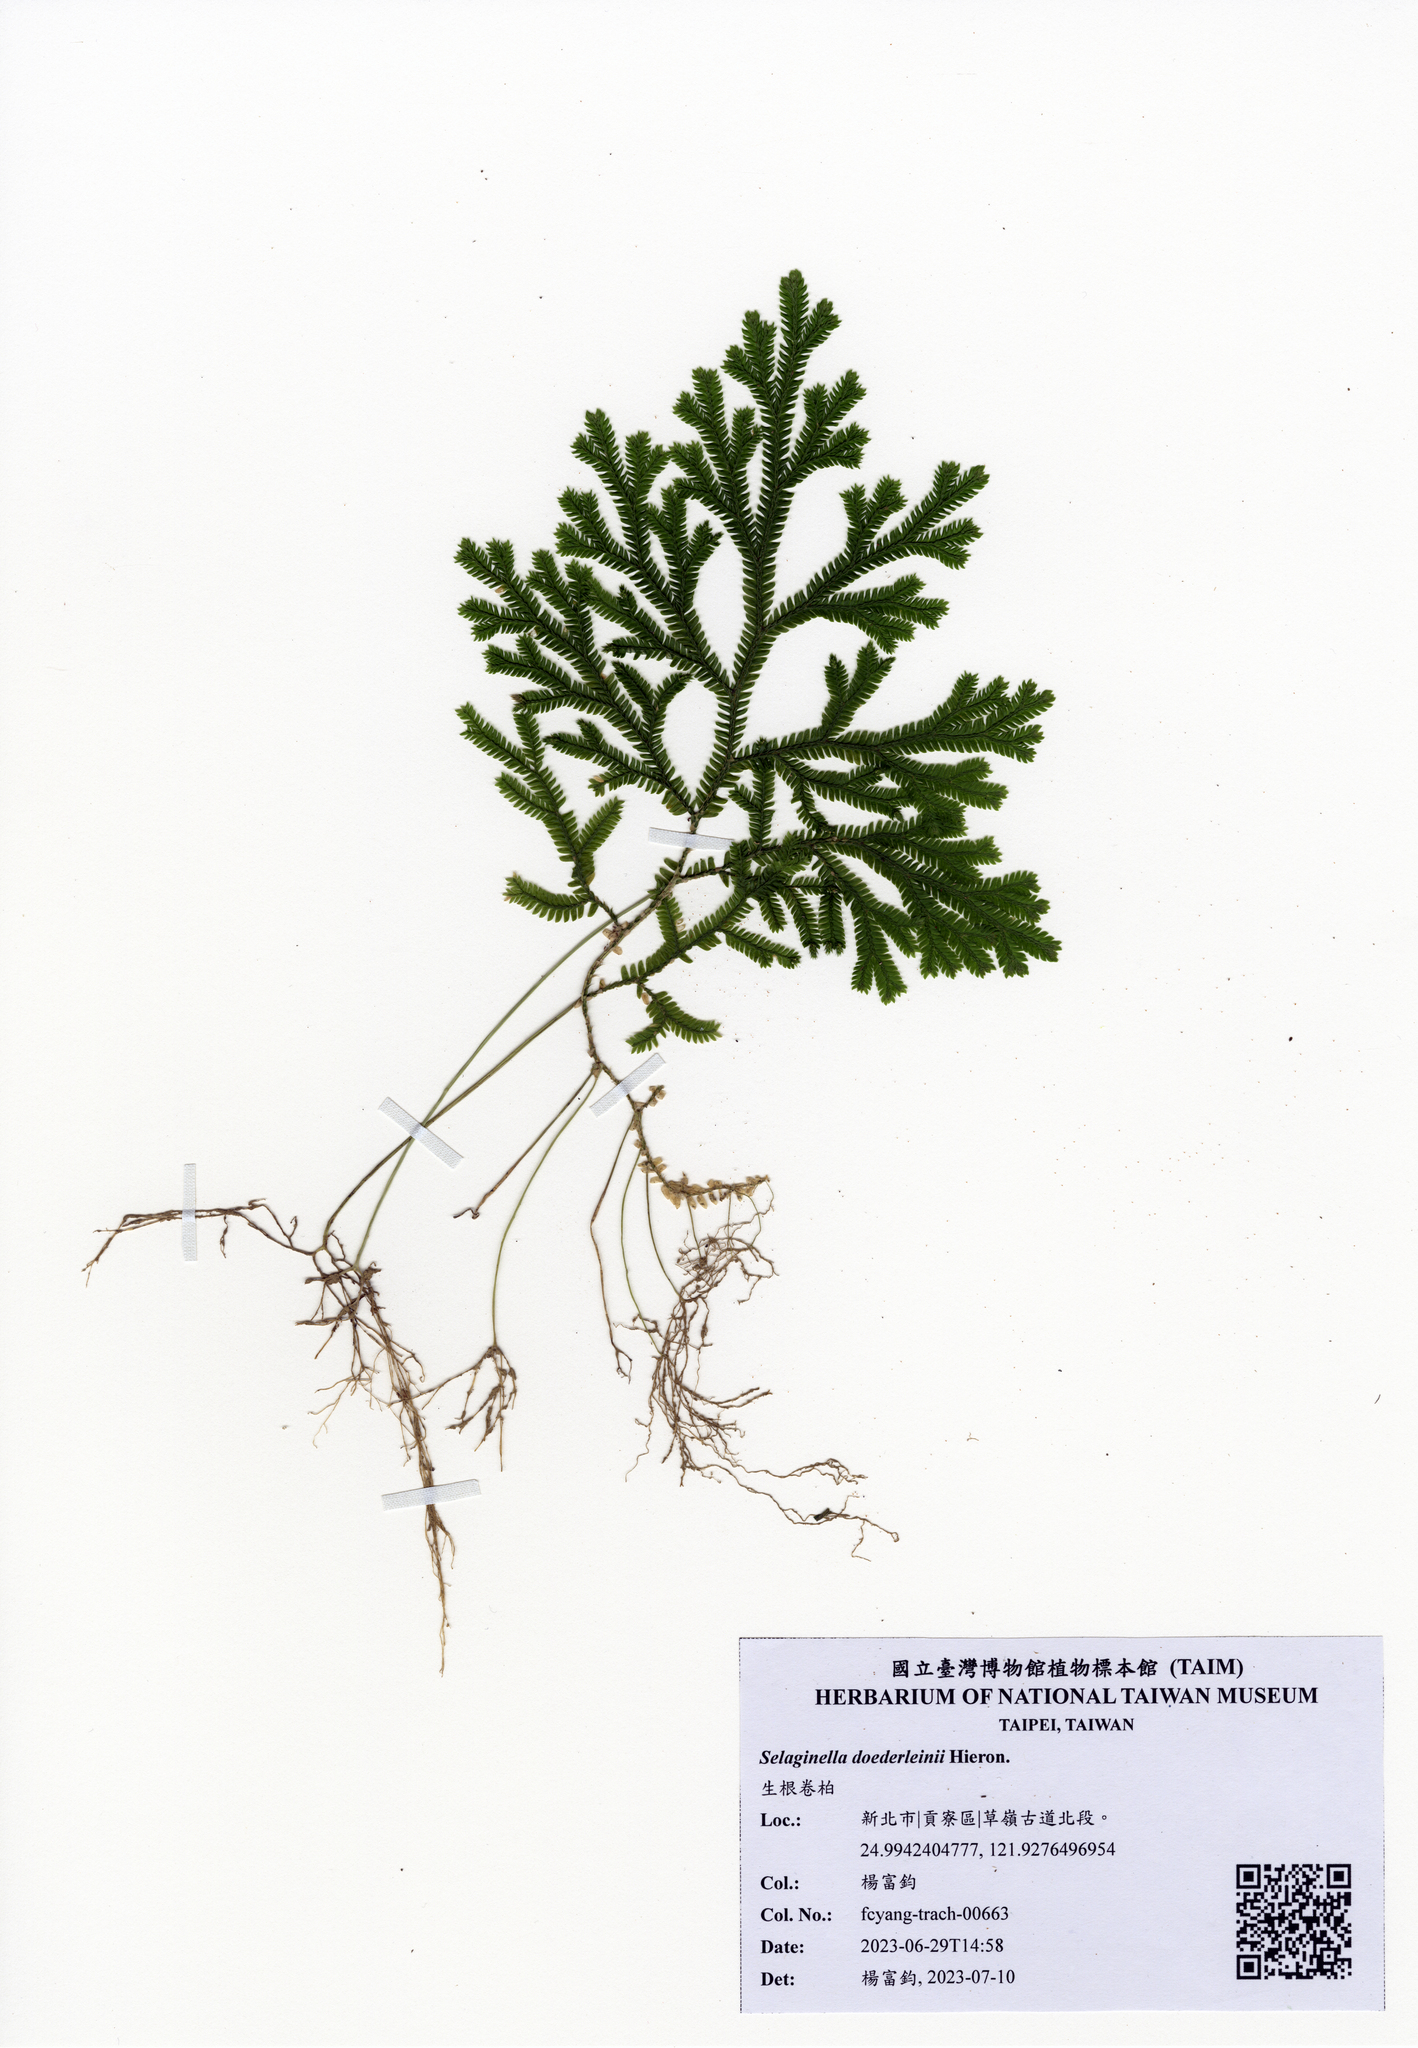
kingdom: Plantae
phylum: Tracheophyta
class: Lycopodiopsida
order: Selaginellales
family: Selaginellaceae
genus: Selaginella
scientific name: Selaginella doederleinii
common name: Greater selaginella
